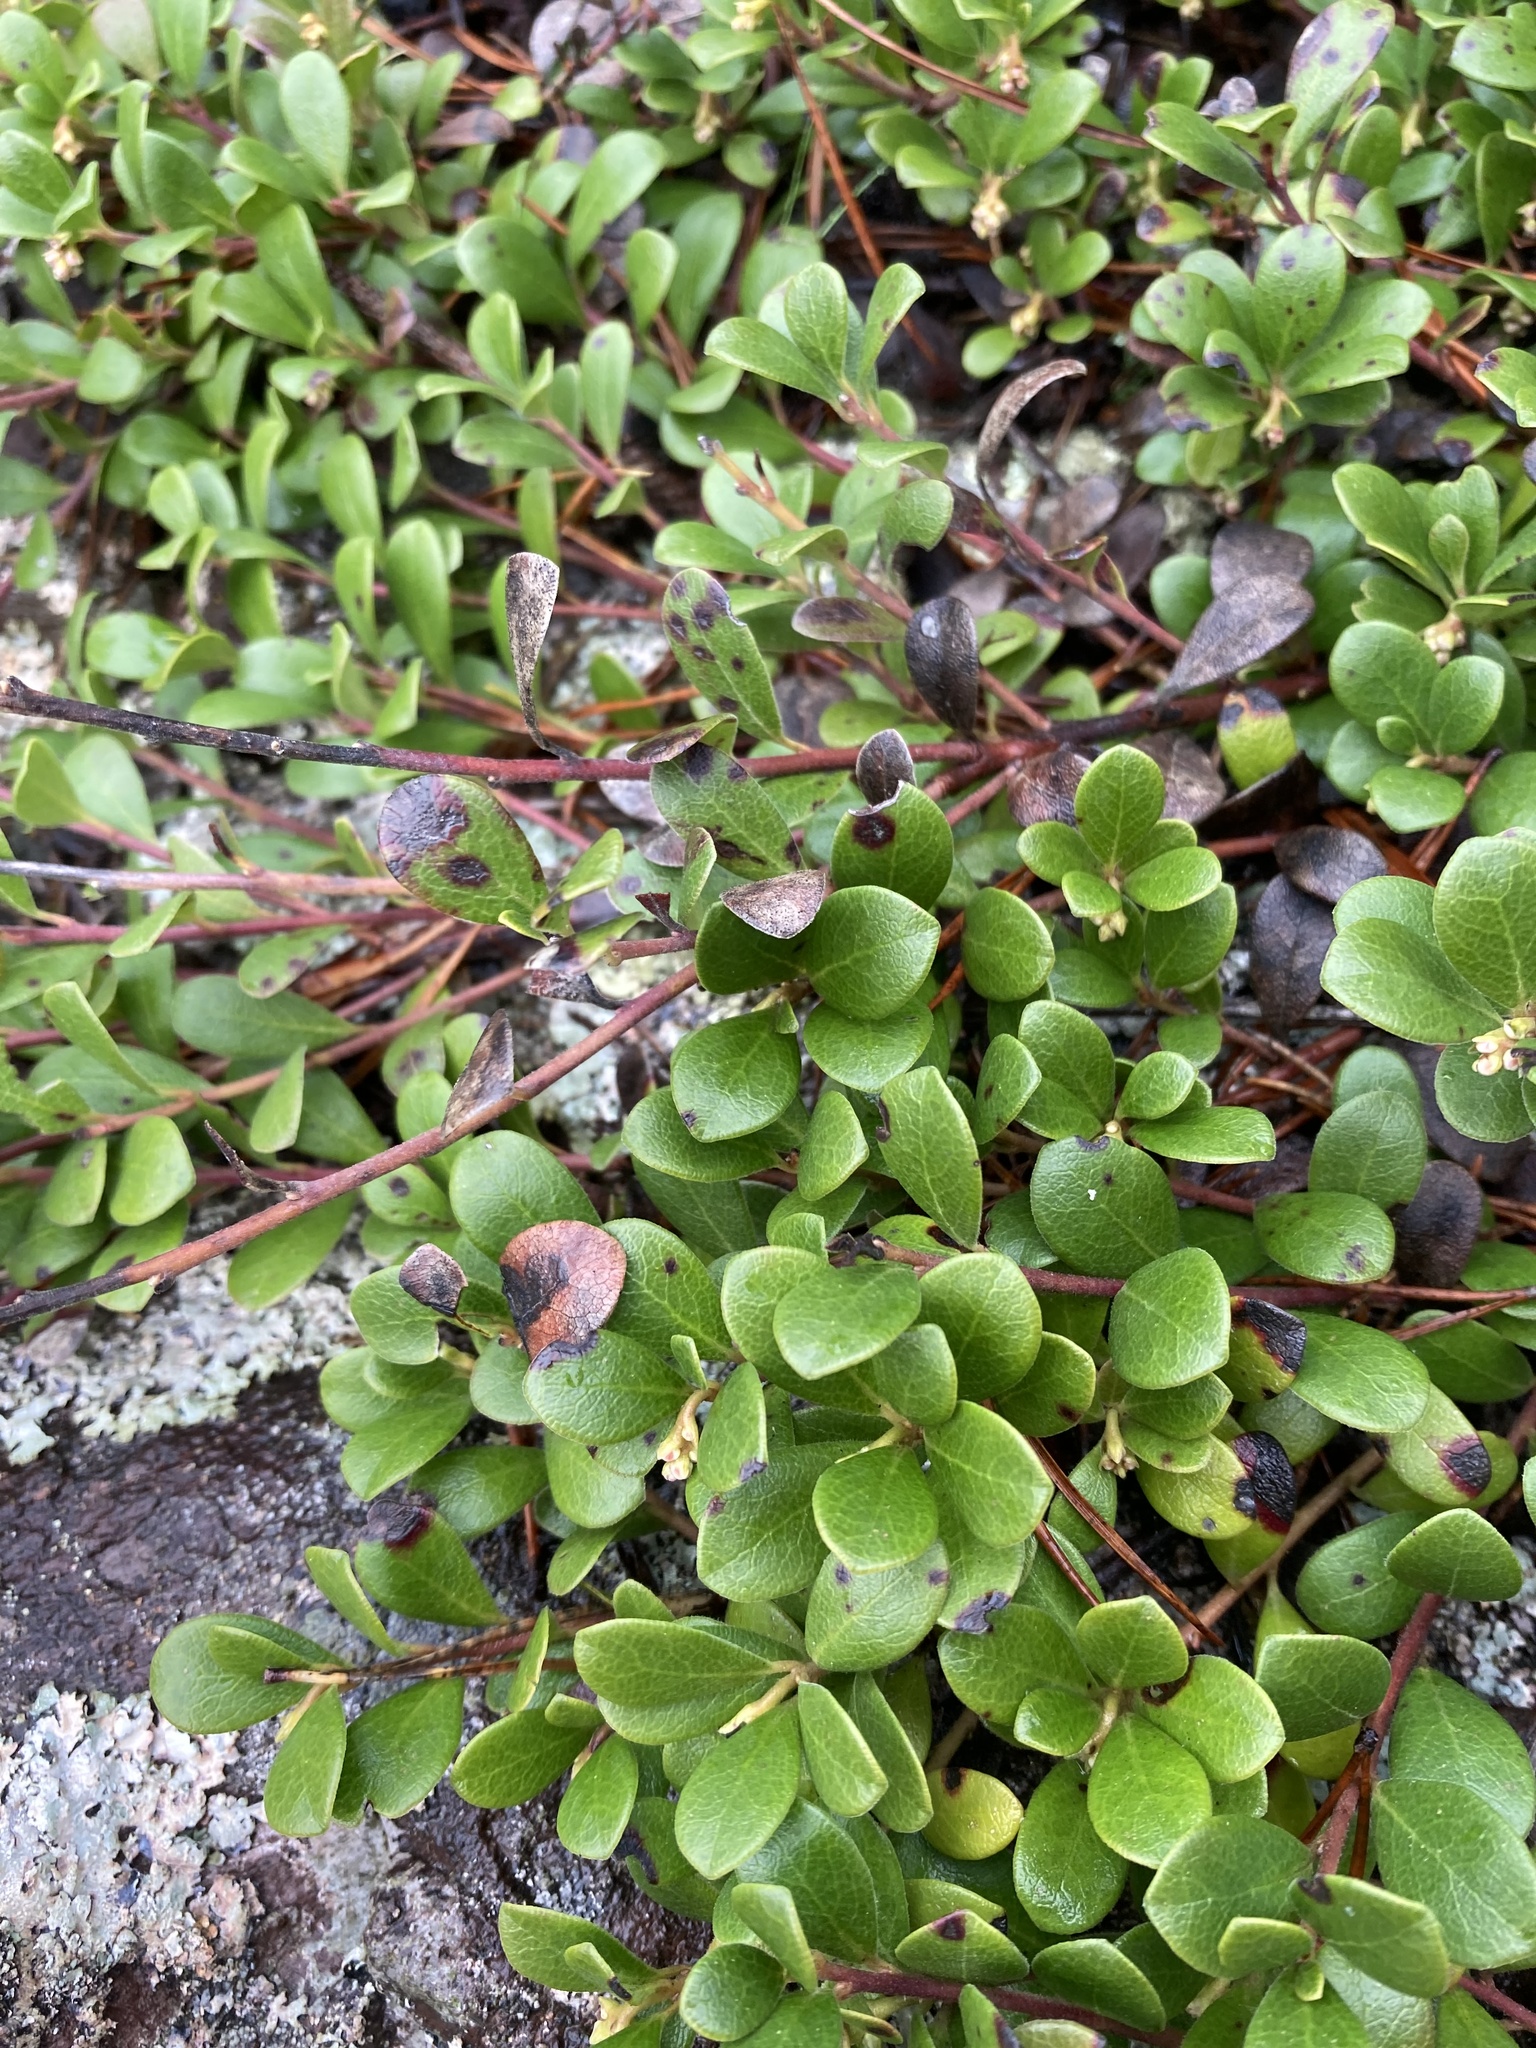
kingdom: Plantae
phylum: Tracheophyta
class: Magnoliopsida
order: Ericales
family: Ericaceae
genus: Arctostaphylos
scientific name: Arctostaphylos uva-ursi
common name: Bearberry
